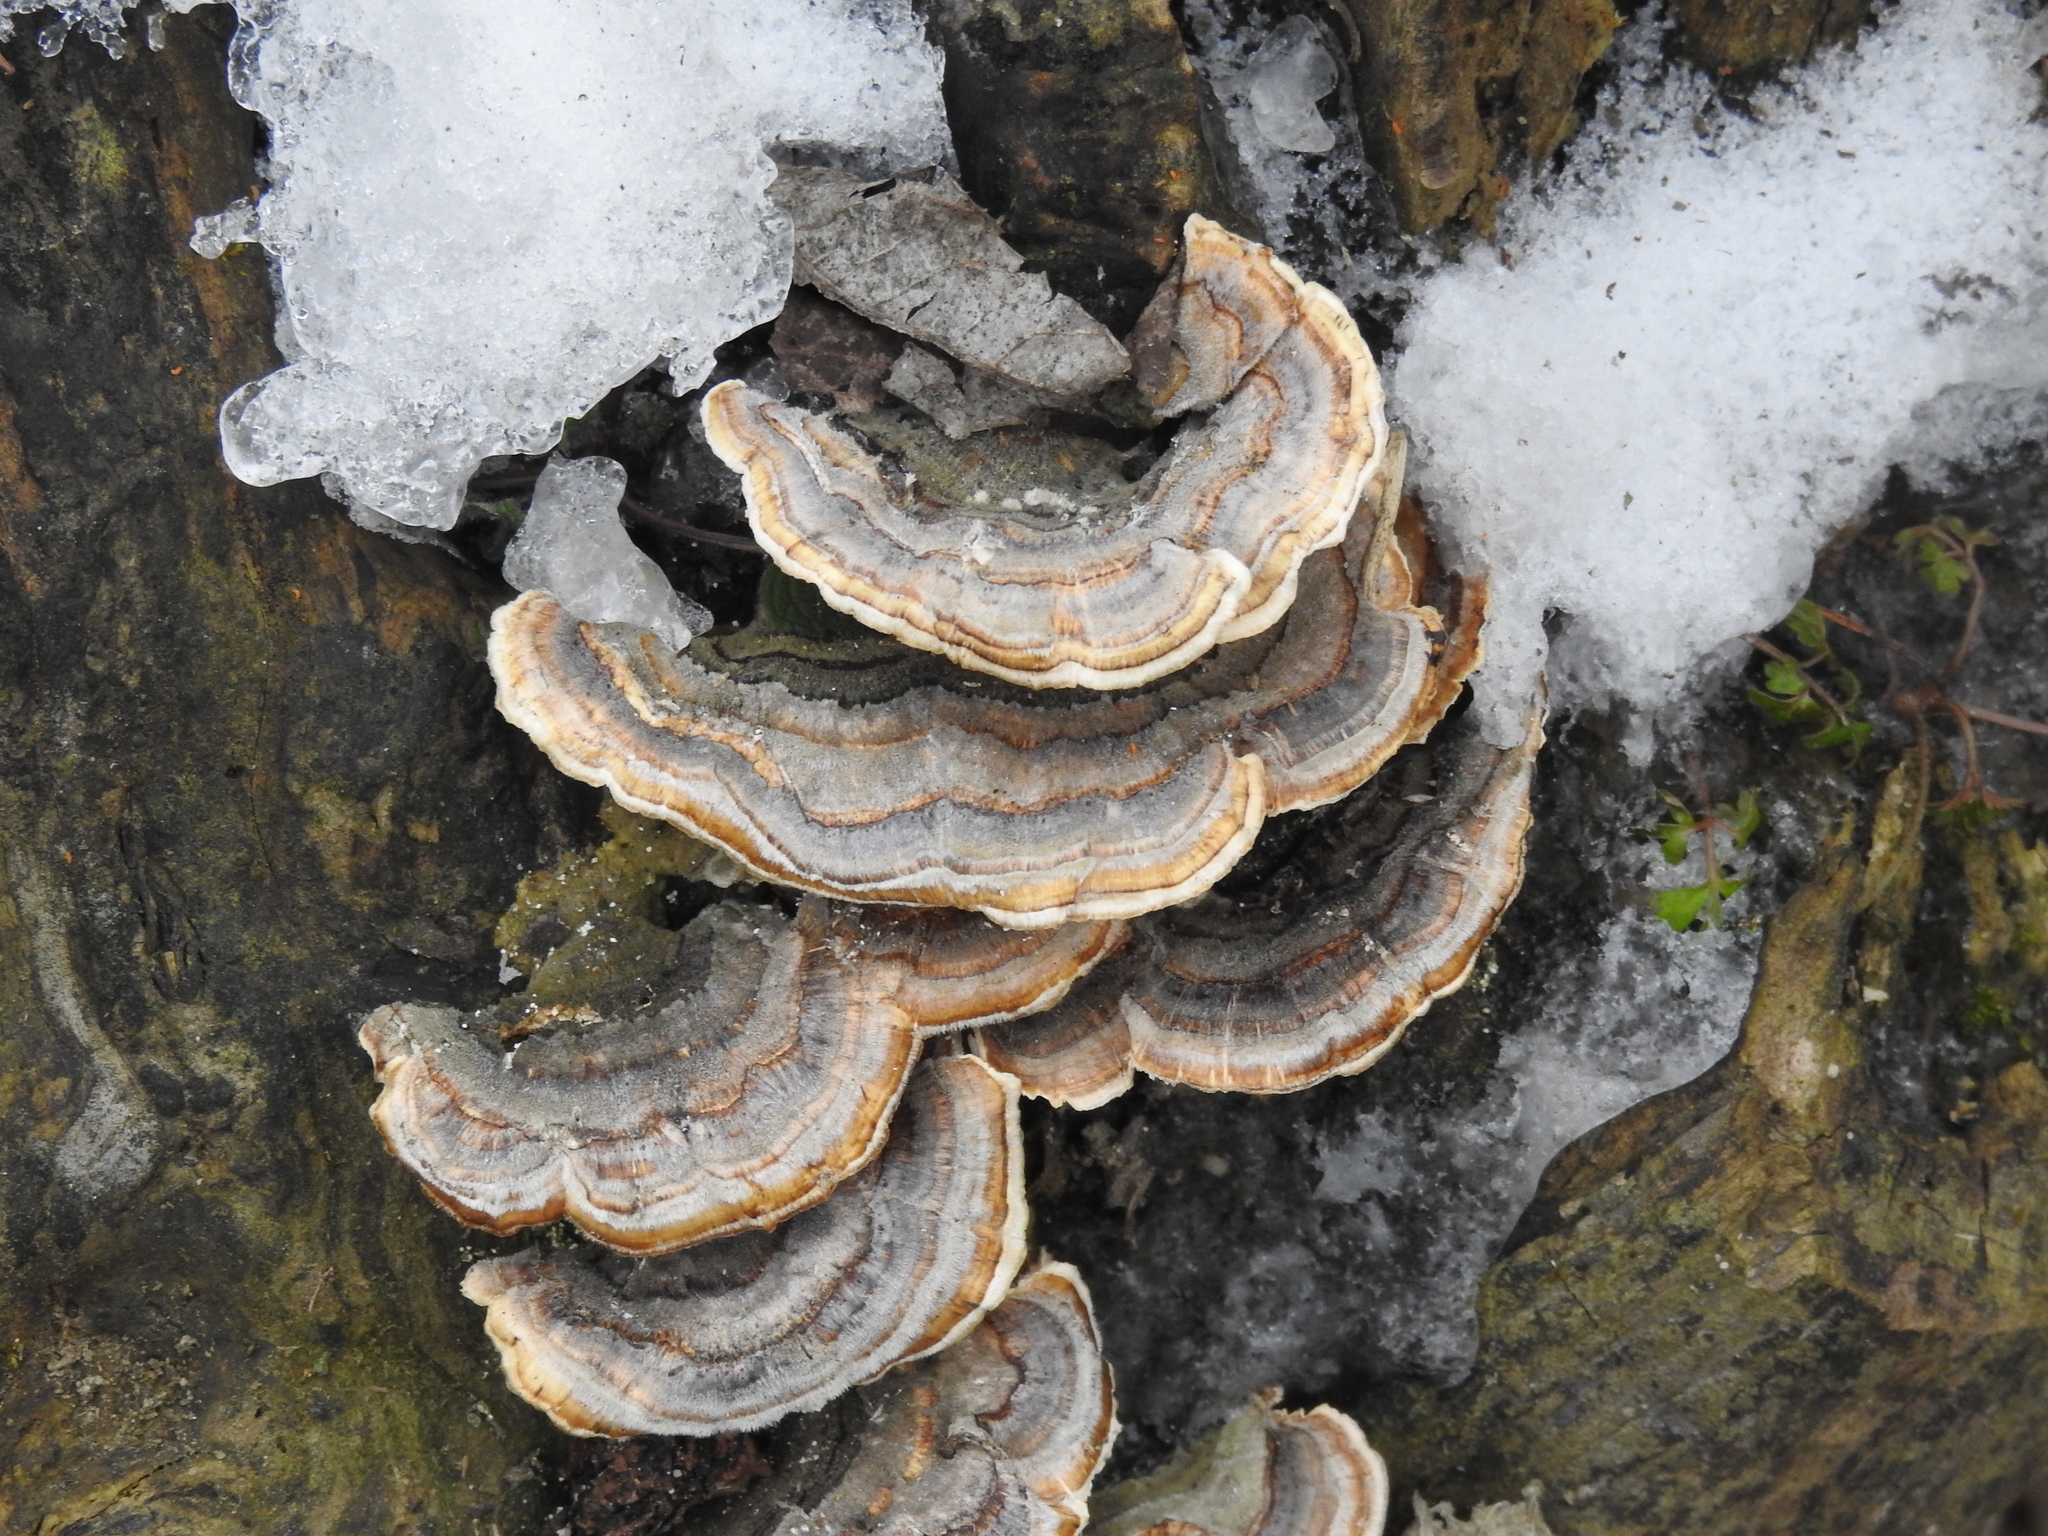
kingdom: Fungi
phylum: Basidiomycota
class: Agaricomycetes
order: Polyporales
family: Polyporaceae
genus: Trametes
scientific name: Trametes versicolor
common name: Turkeytail
